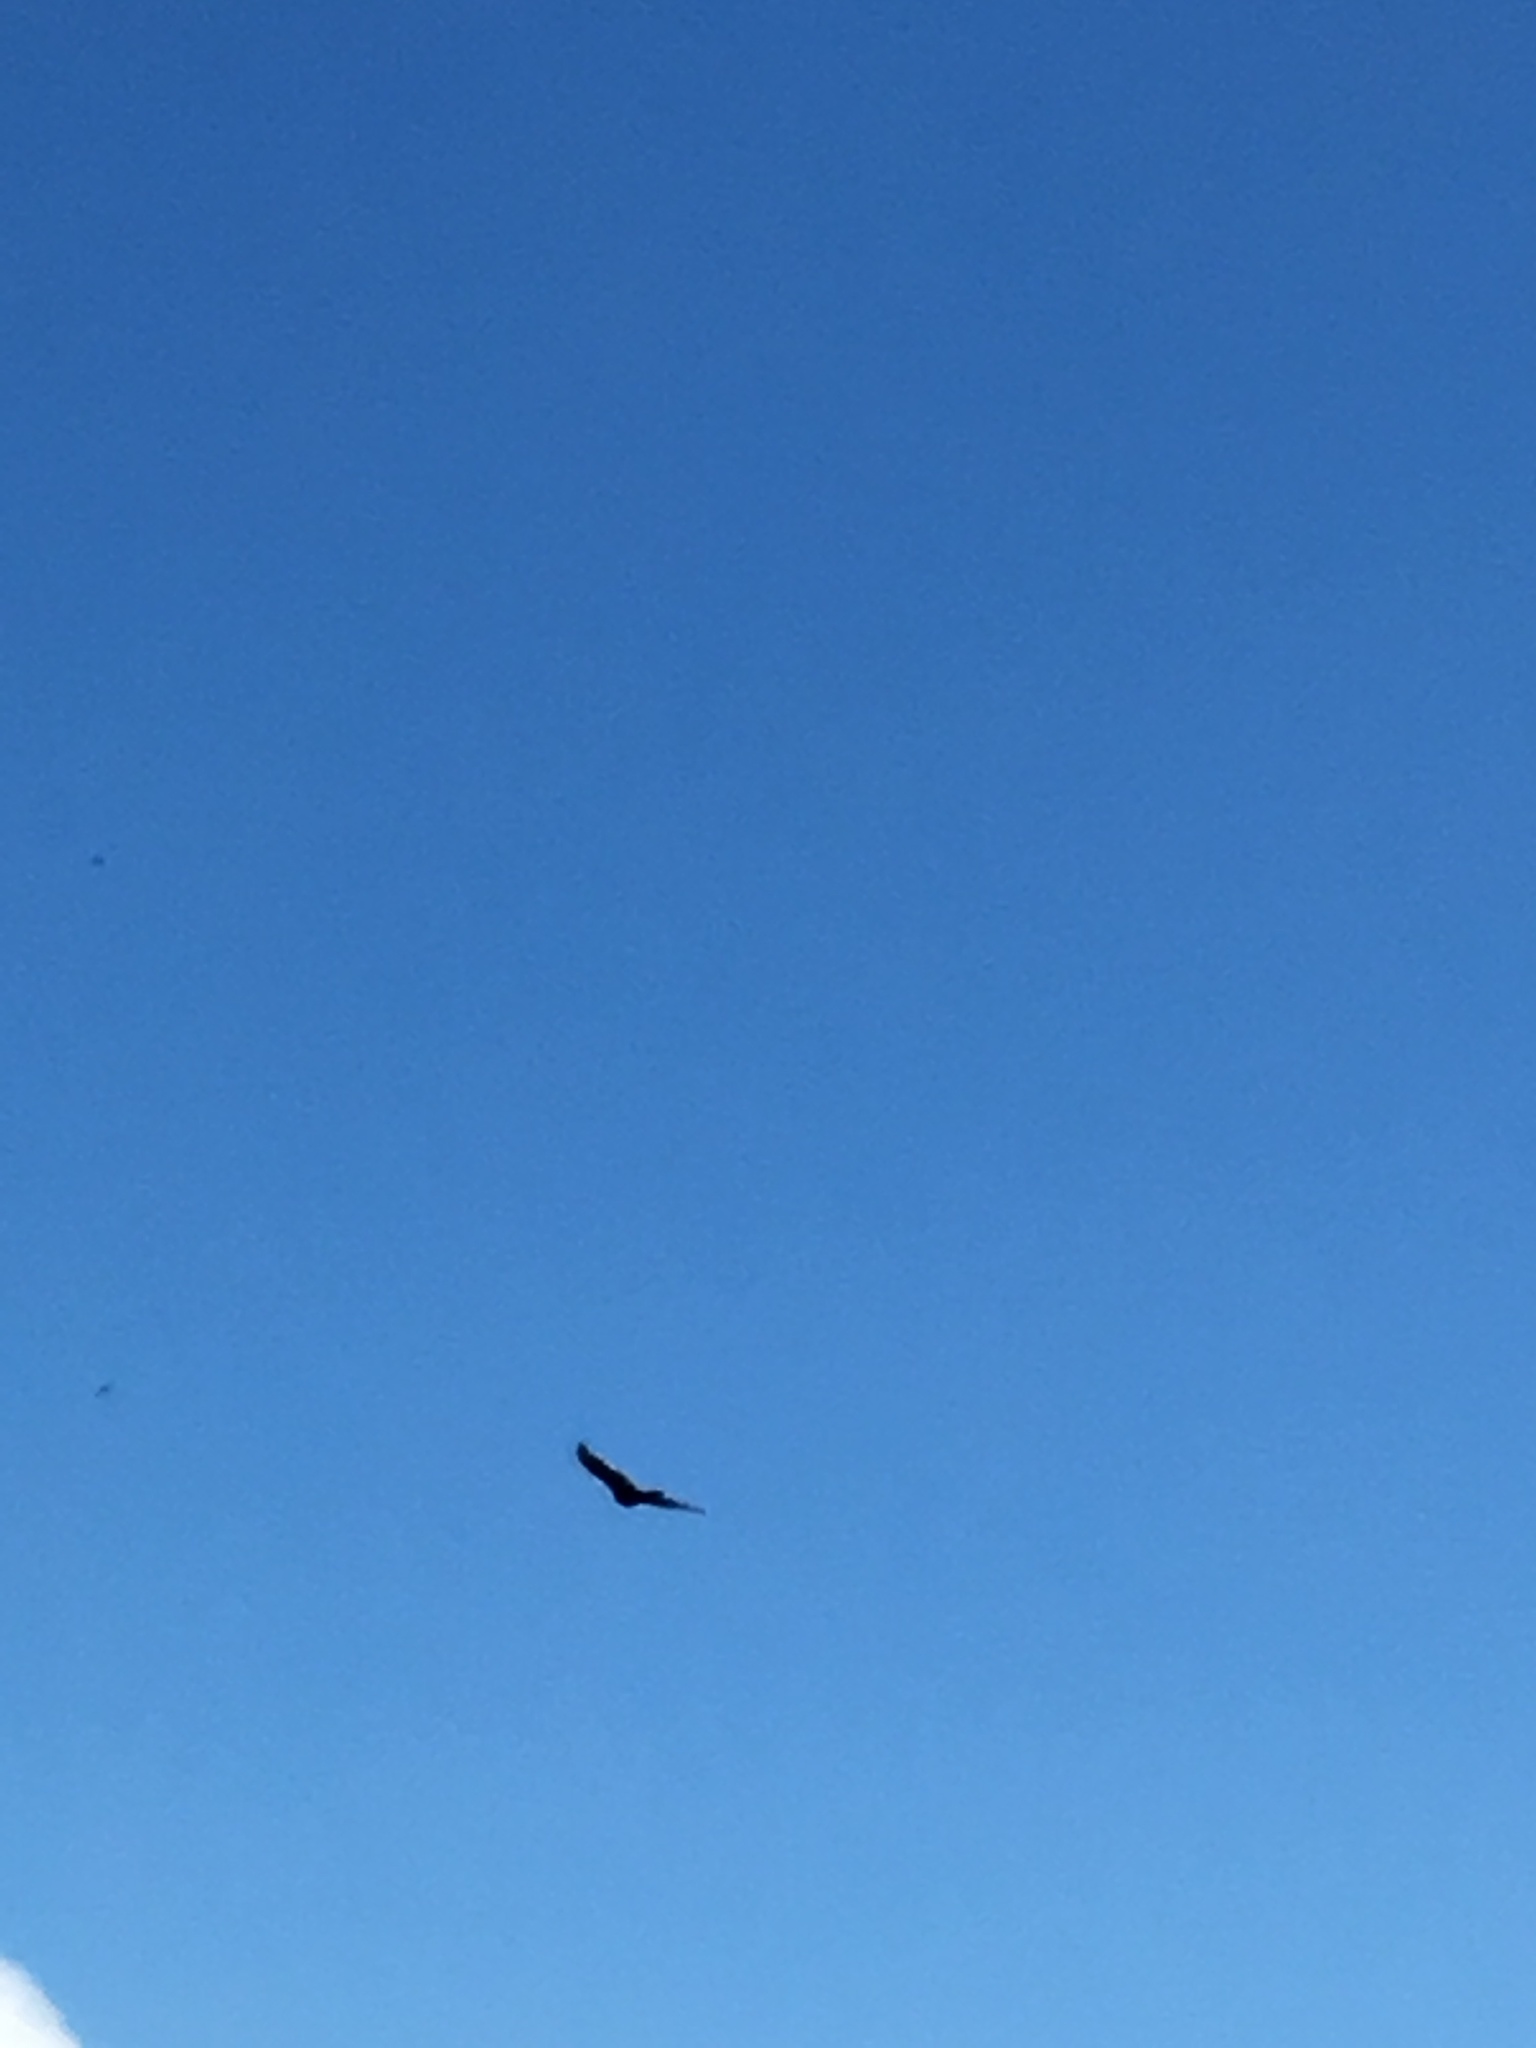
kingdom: Animalia
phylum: Chordata
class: Aves
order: Accipitriformes
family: Cathartidae
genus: Cathartes
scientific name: Cathartes aura
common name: Turkey vulture
